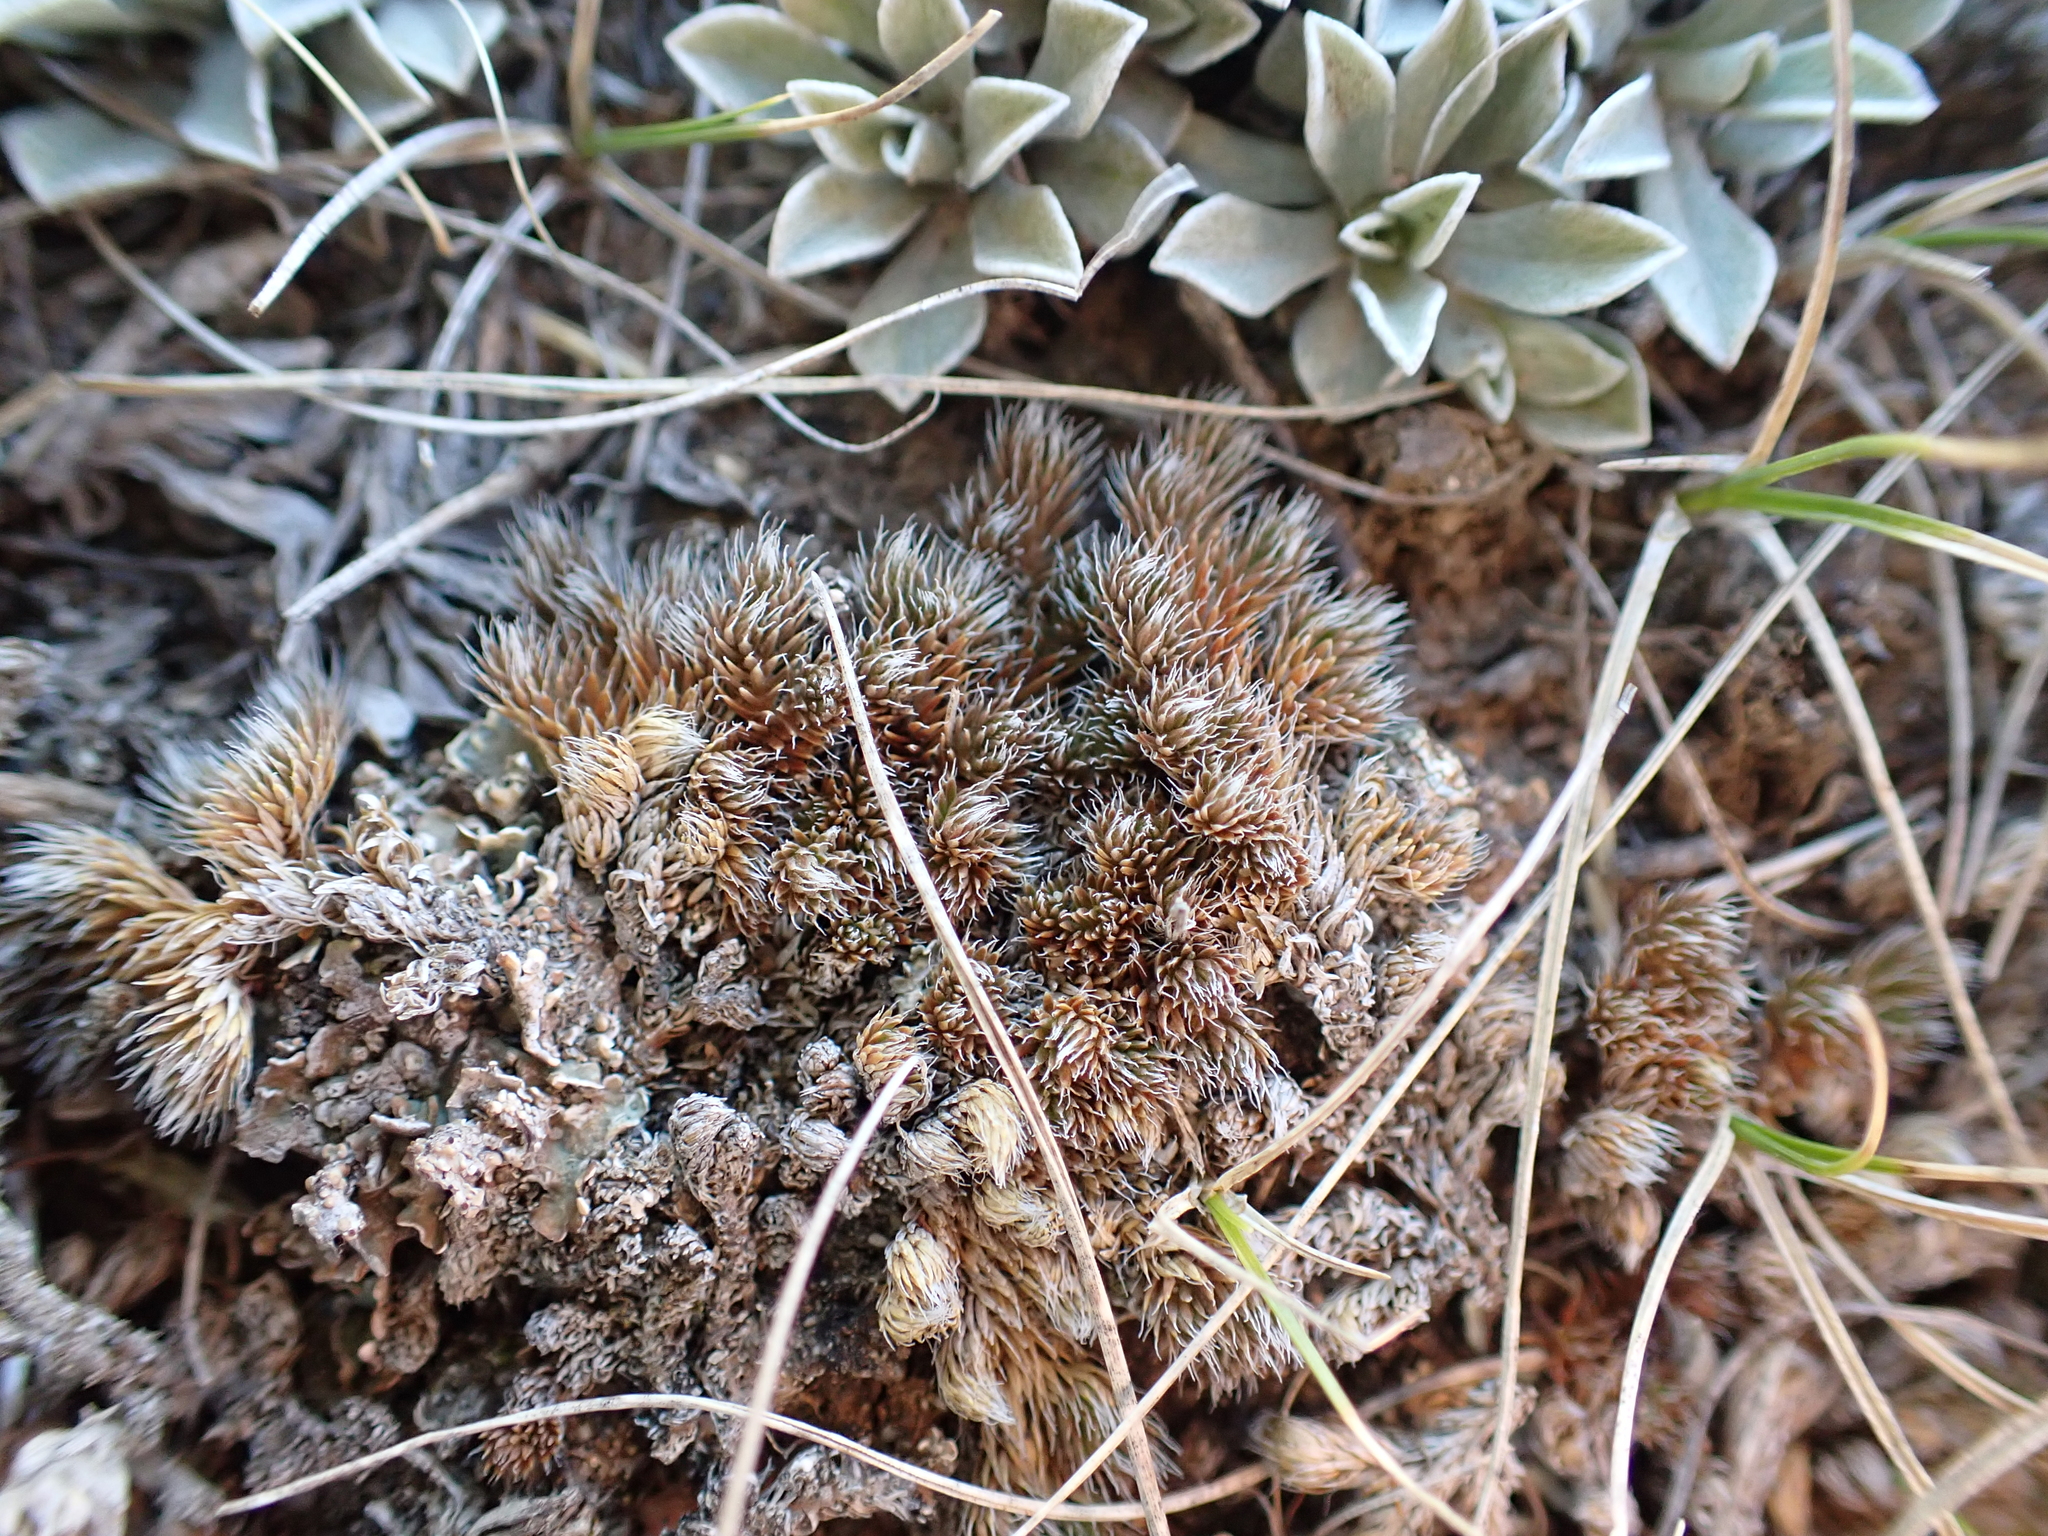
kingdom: Plantae
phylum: Tracheophyta
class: Lycopodiopsida
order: Selaginellales
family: Selaginellaceae
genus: Selaginella
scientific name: Selaginella densa
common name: Mountain spike-moss
